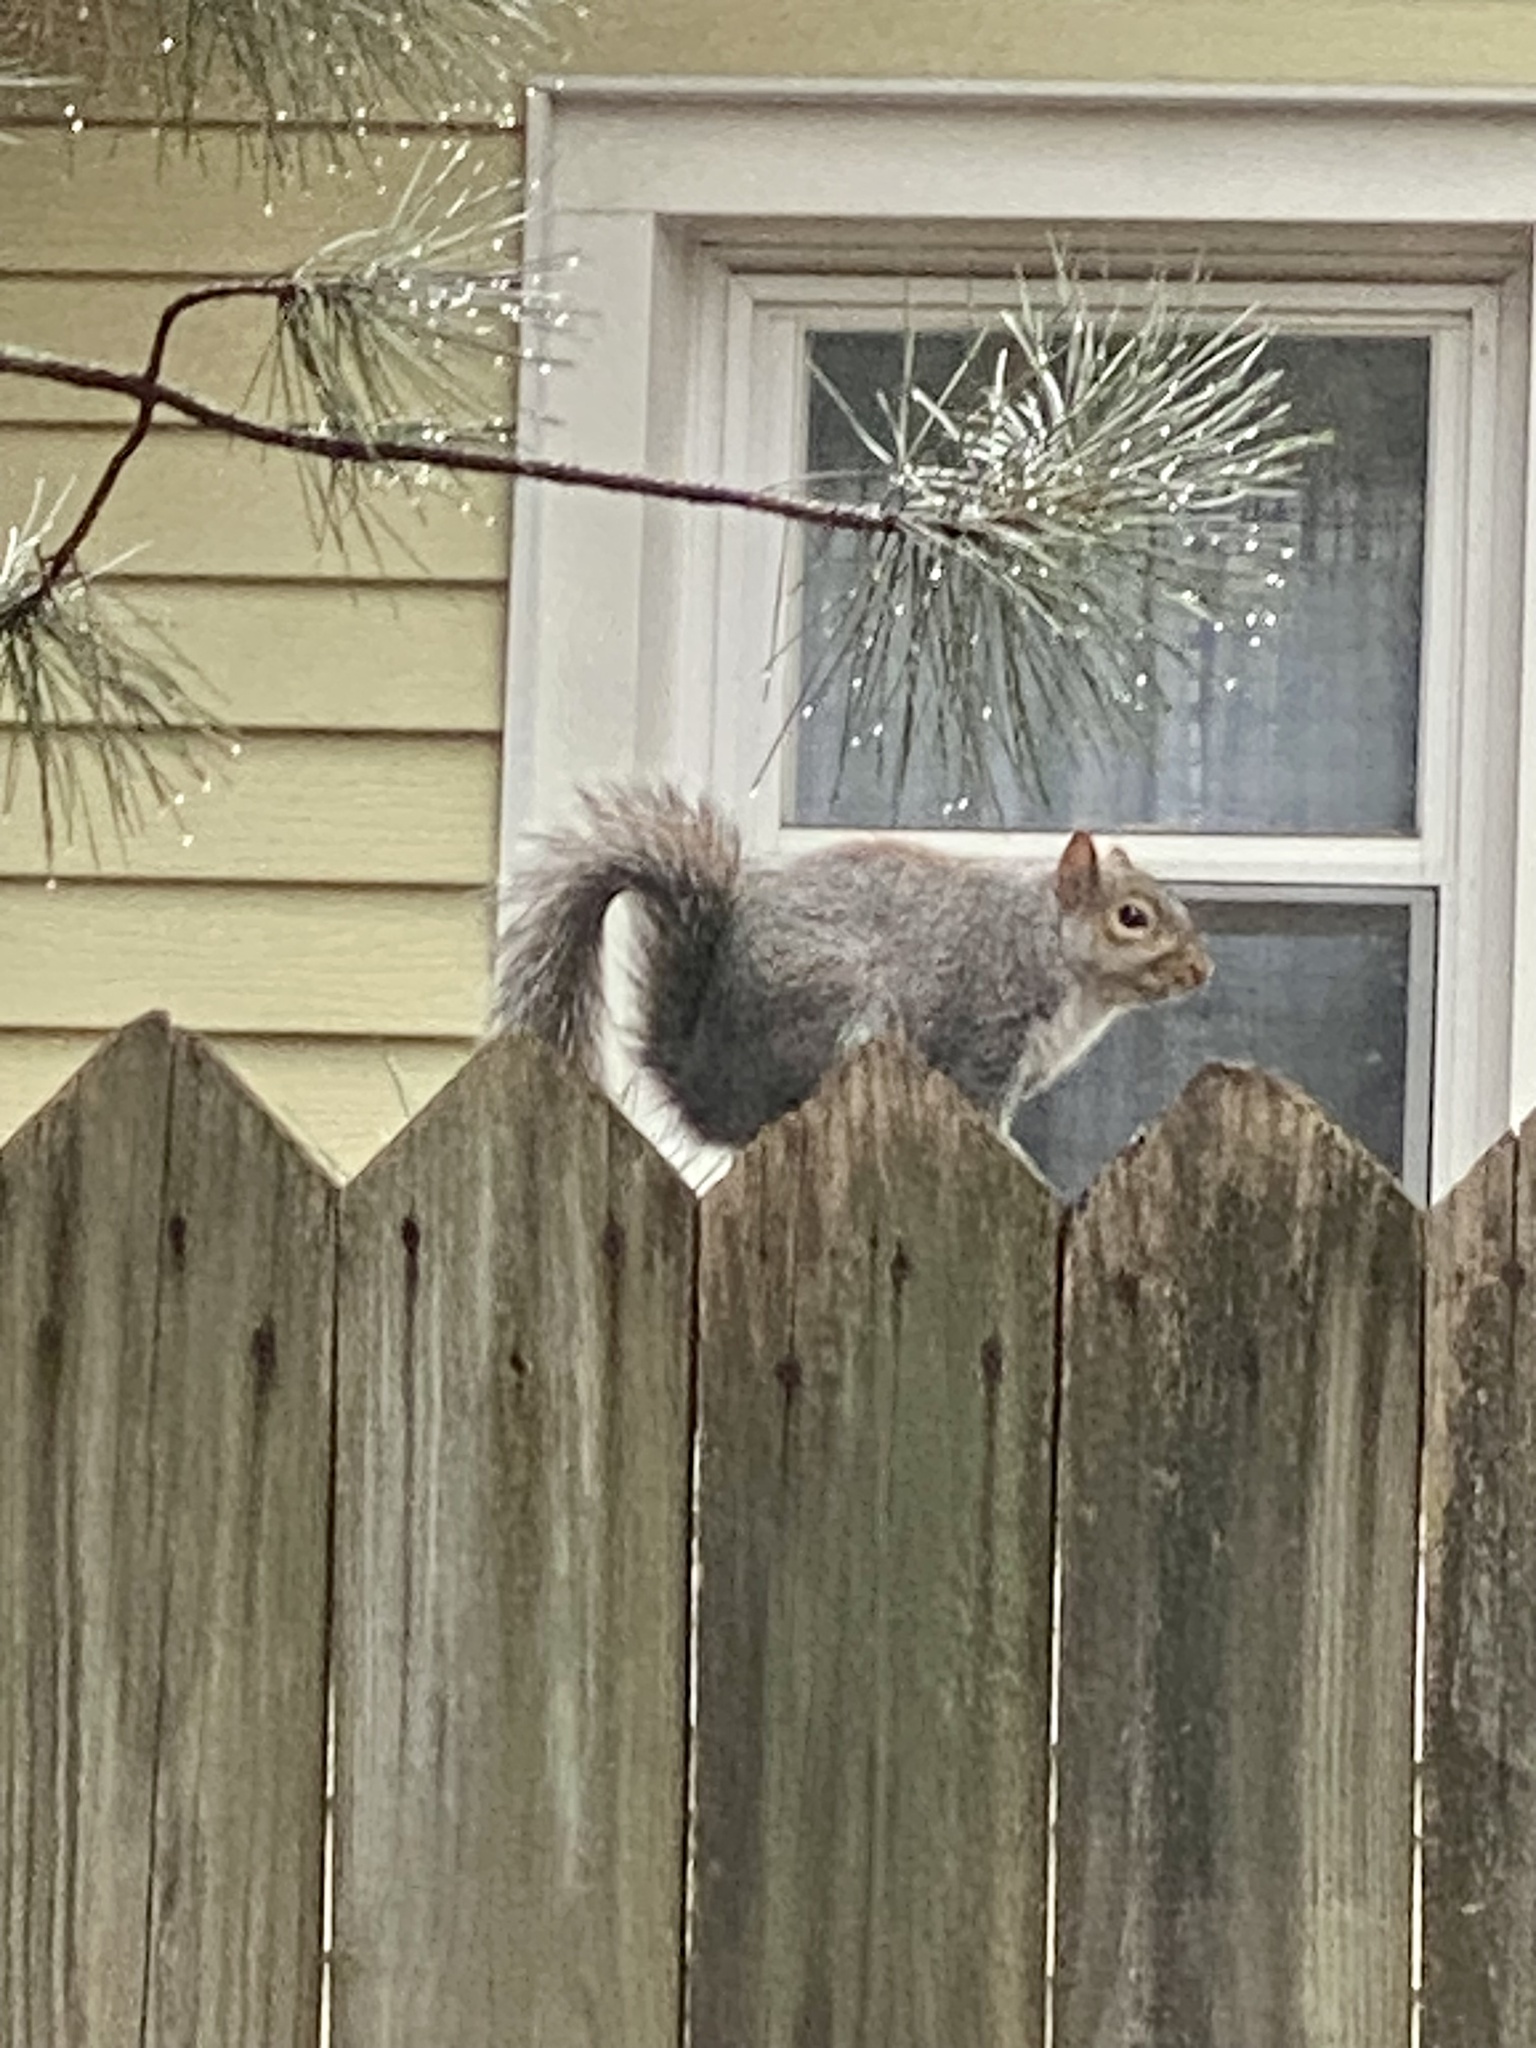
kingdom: Animalia
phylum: Chordata
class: Mammalia
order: Rodentia
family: Sciuridae
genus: Sciurus
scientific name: Sciurus carolinensis
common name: Eastern gray squirrel
